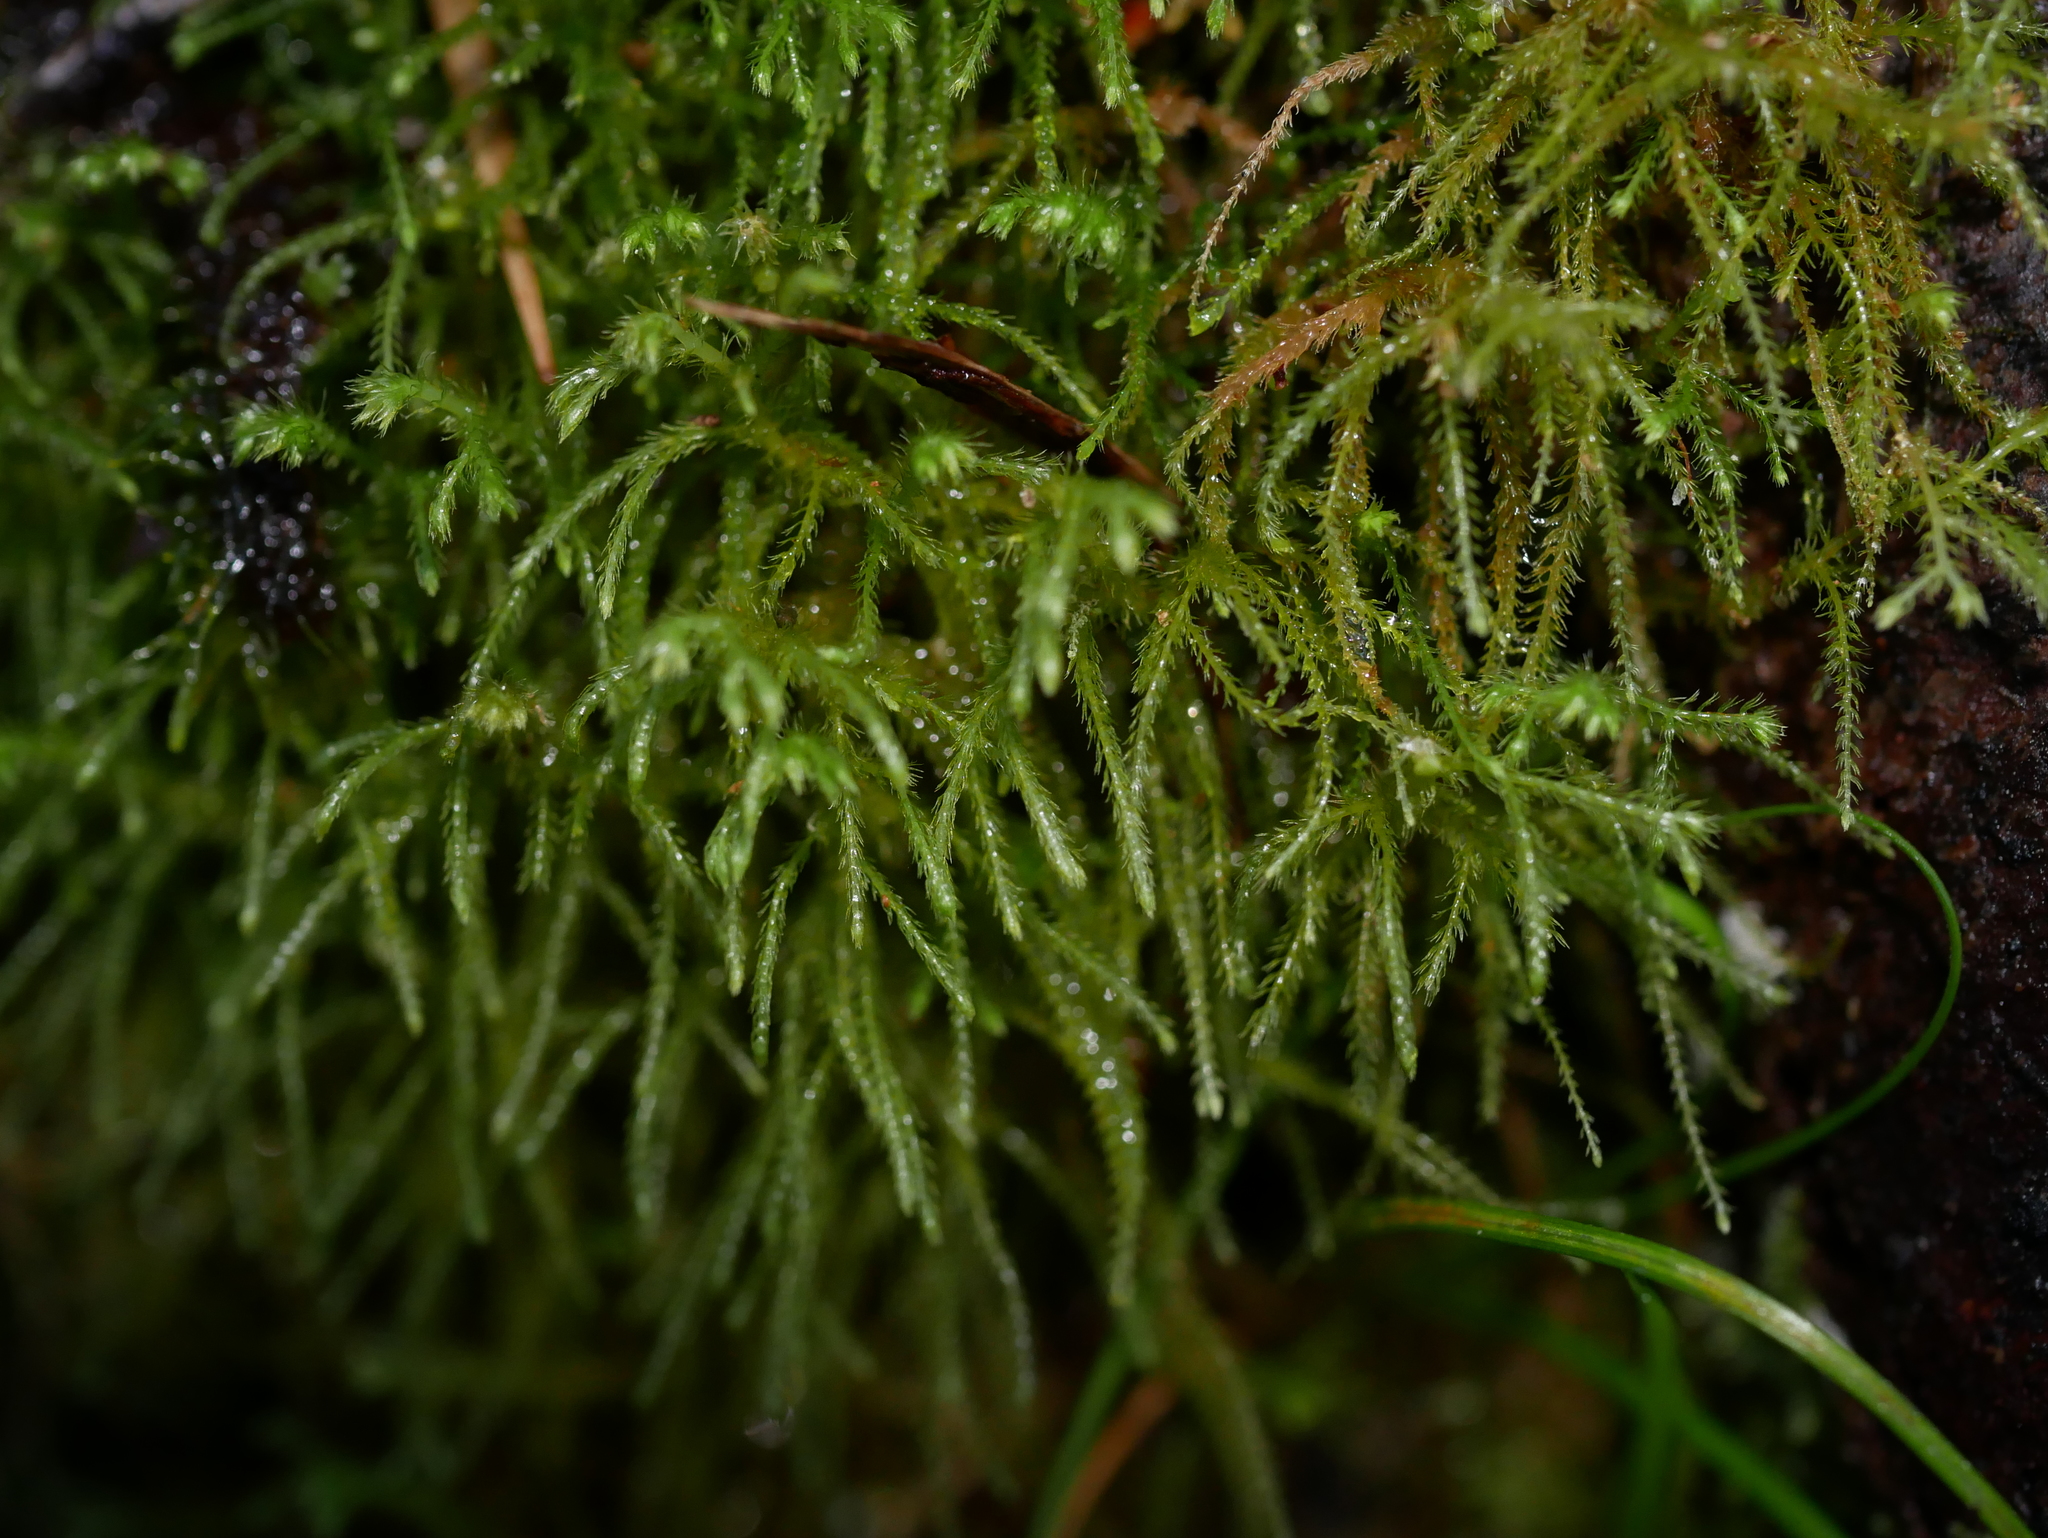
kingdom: Plantae
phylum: Marchantiophyta
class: Jungermanniopsida
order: Jungermanniales
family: Lepidoziaceae
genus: Lepidozia
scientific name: Lepidozia spinosissima
